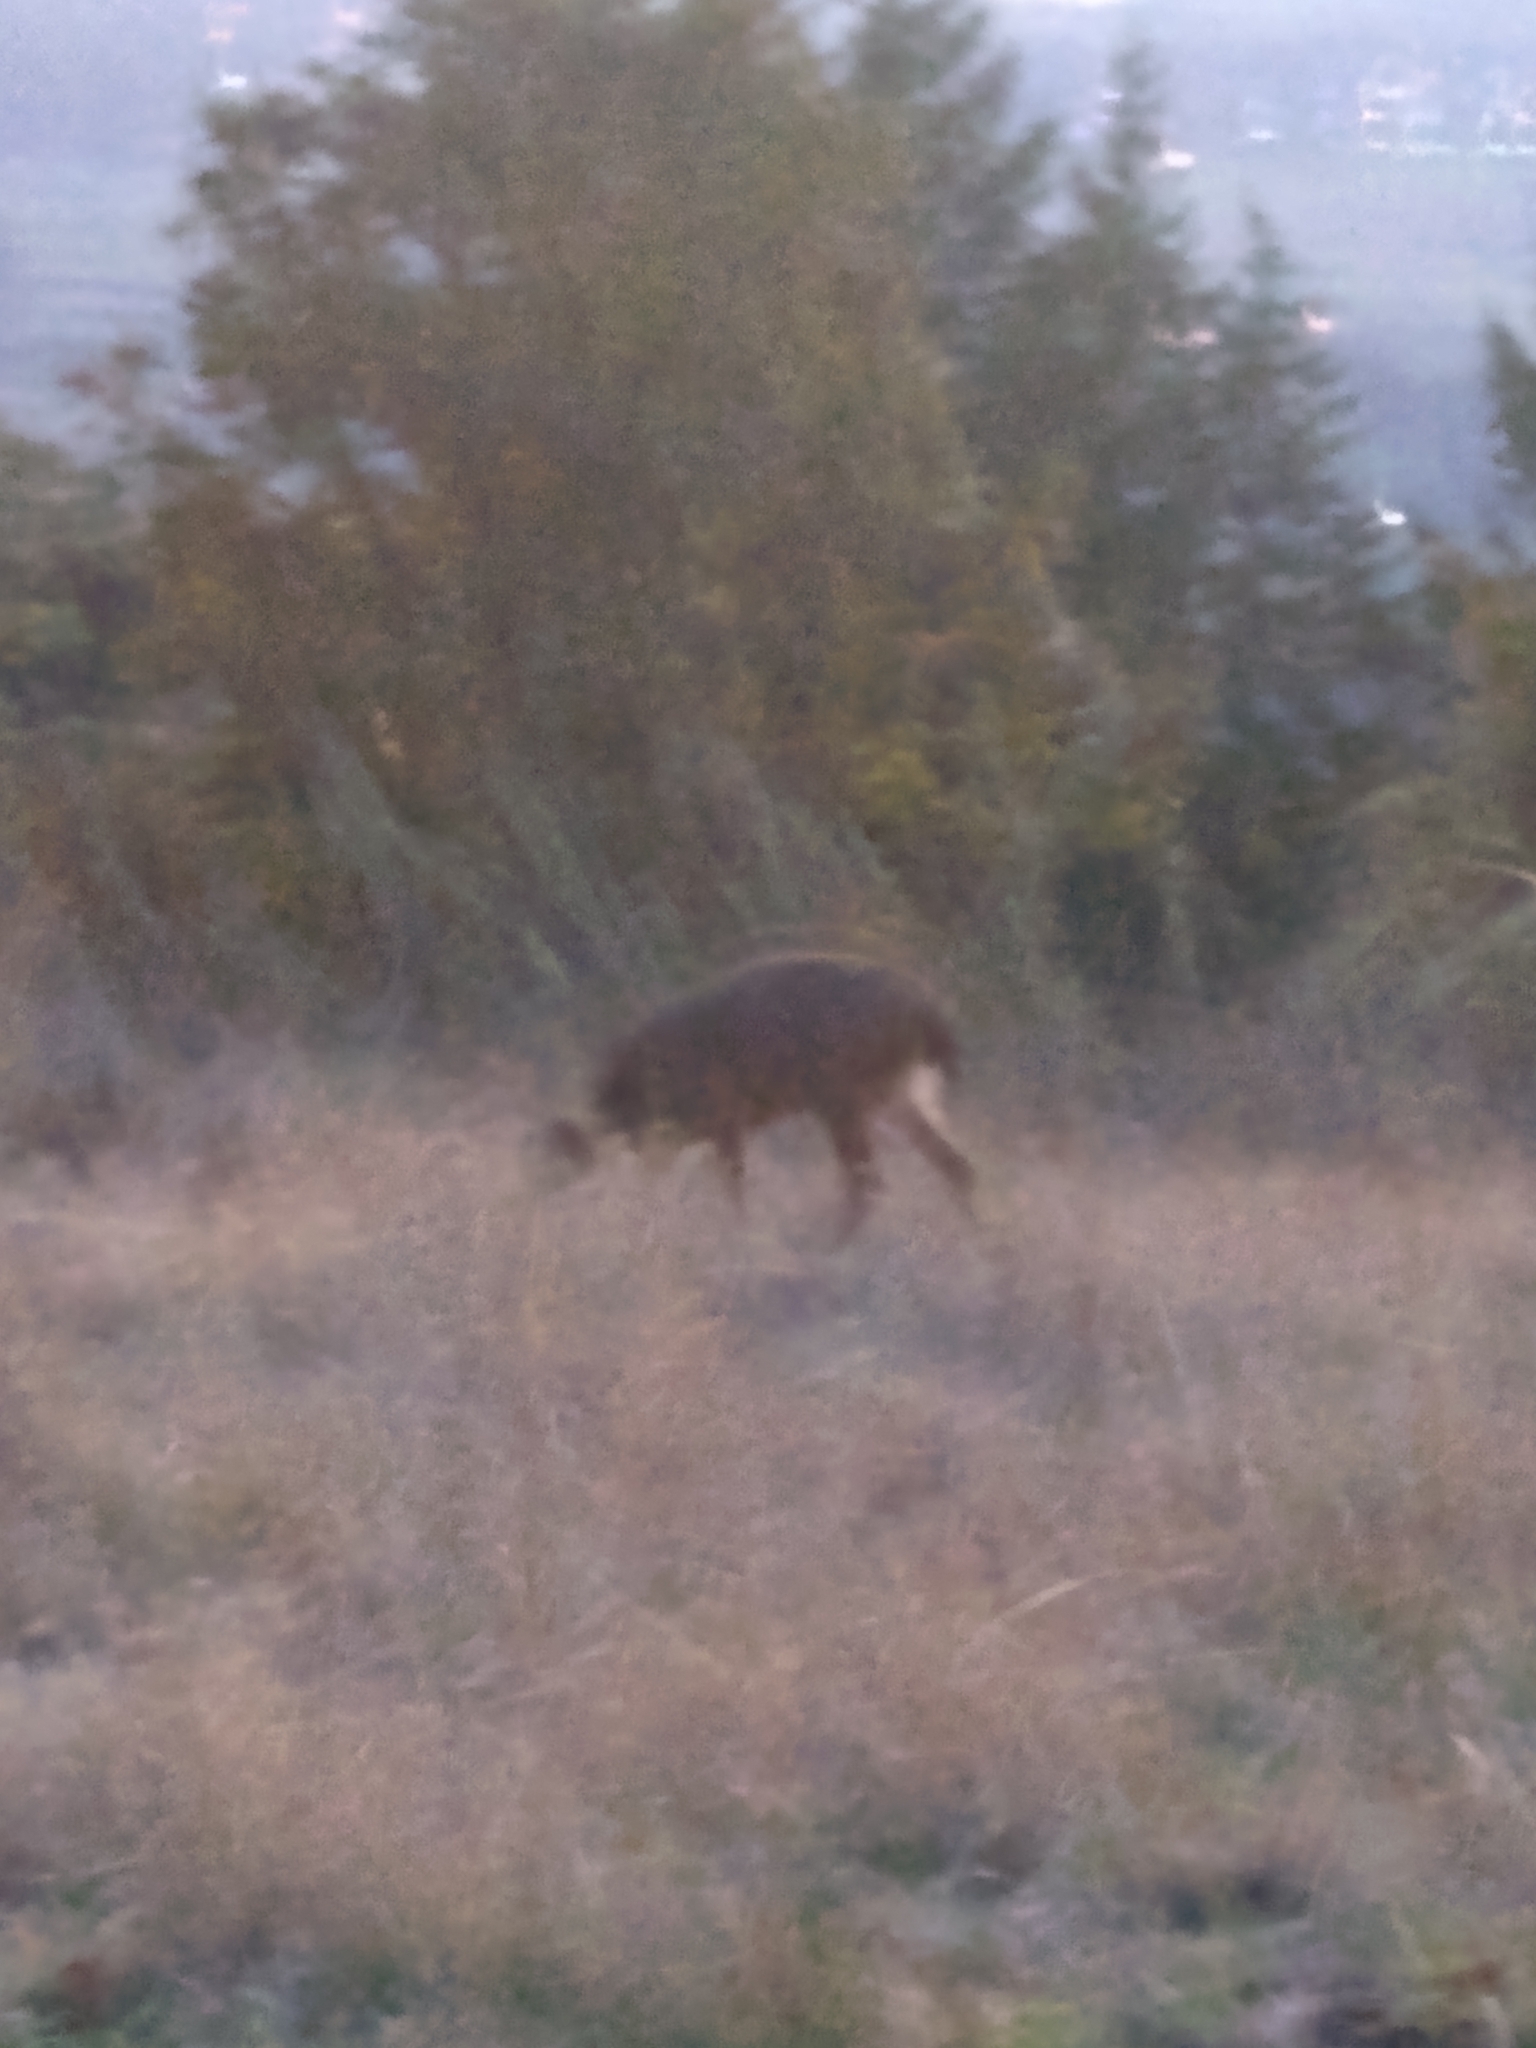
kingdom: Animalia
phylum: Chordata
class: Mammalia
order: Artiodactyla
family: Cervidae
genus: Odocoileus
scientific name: Odocoileus hemionus
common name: Mule deer
